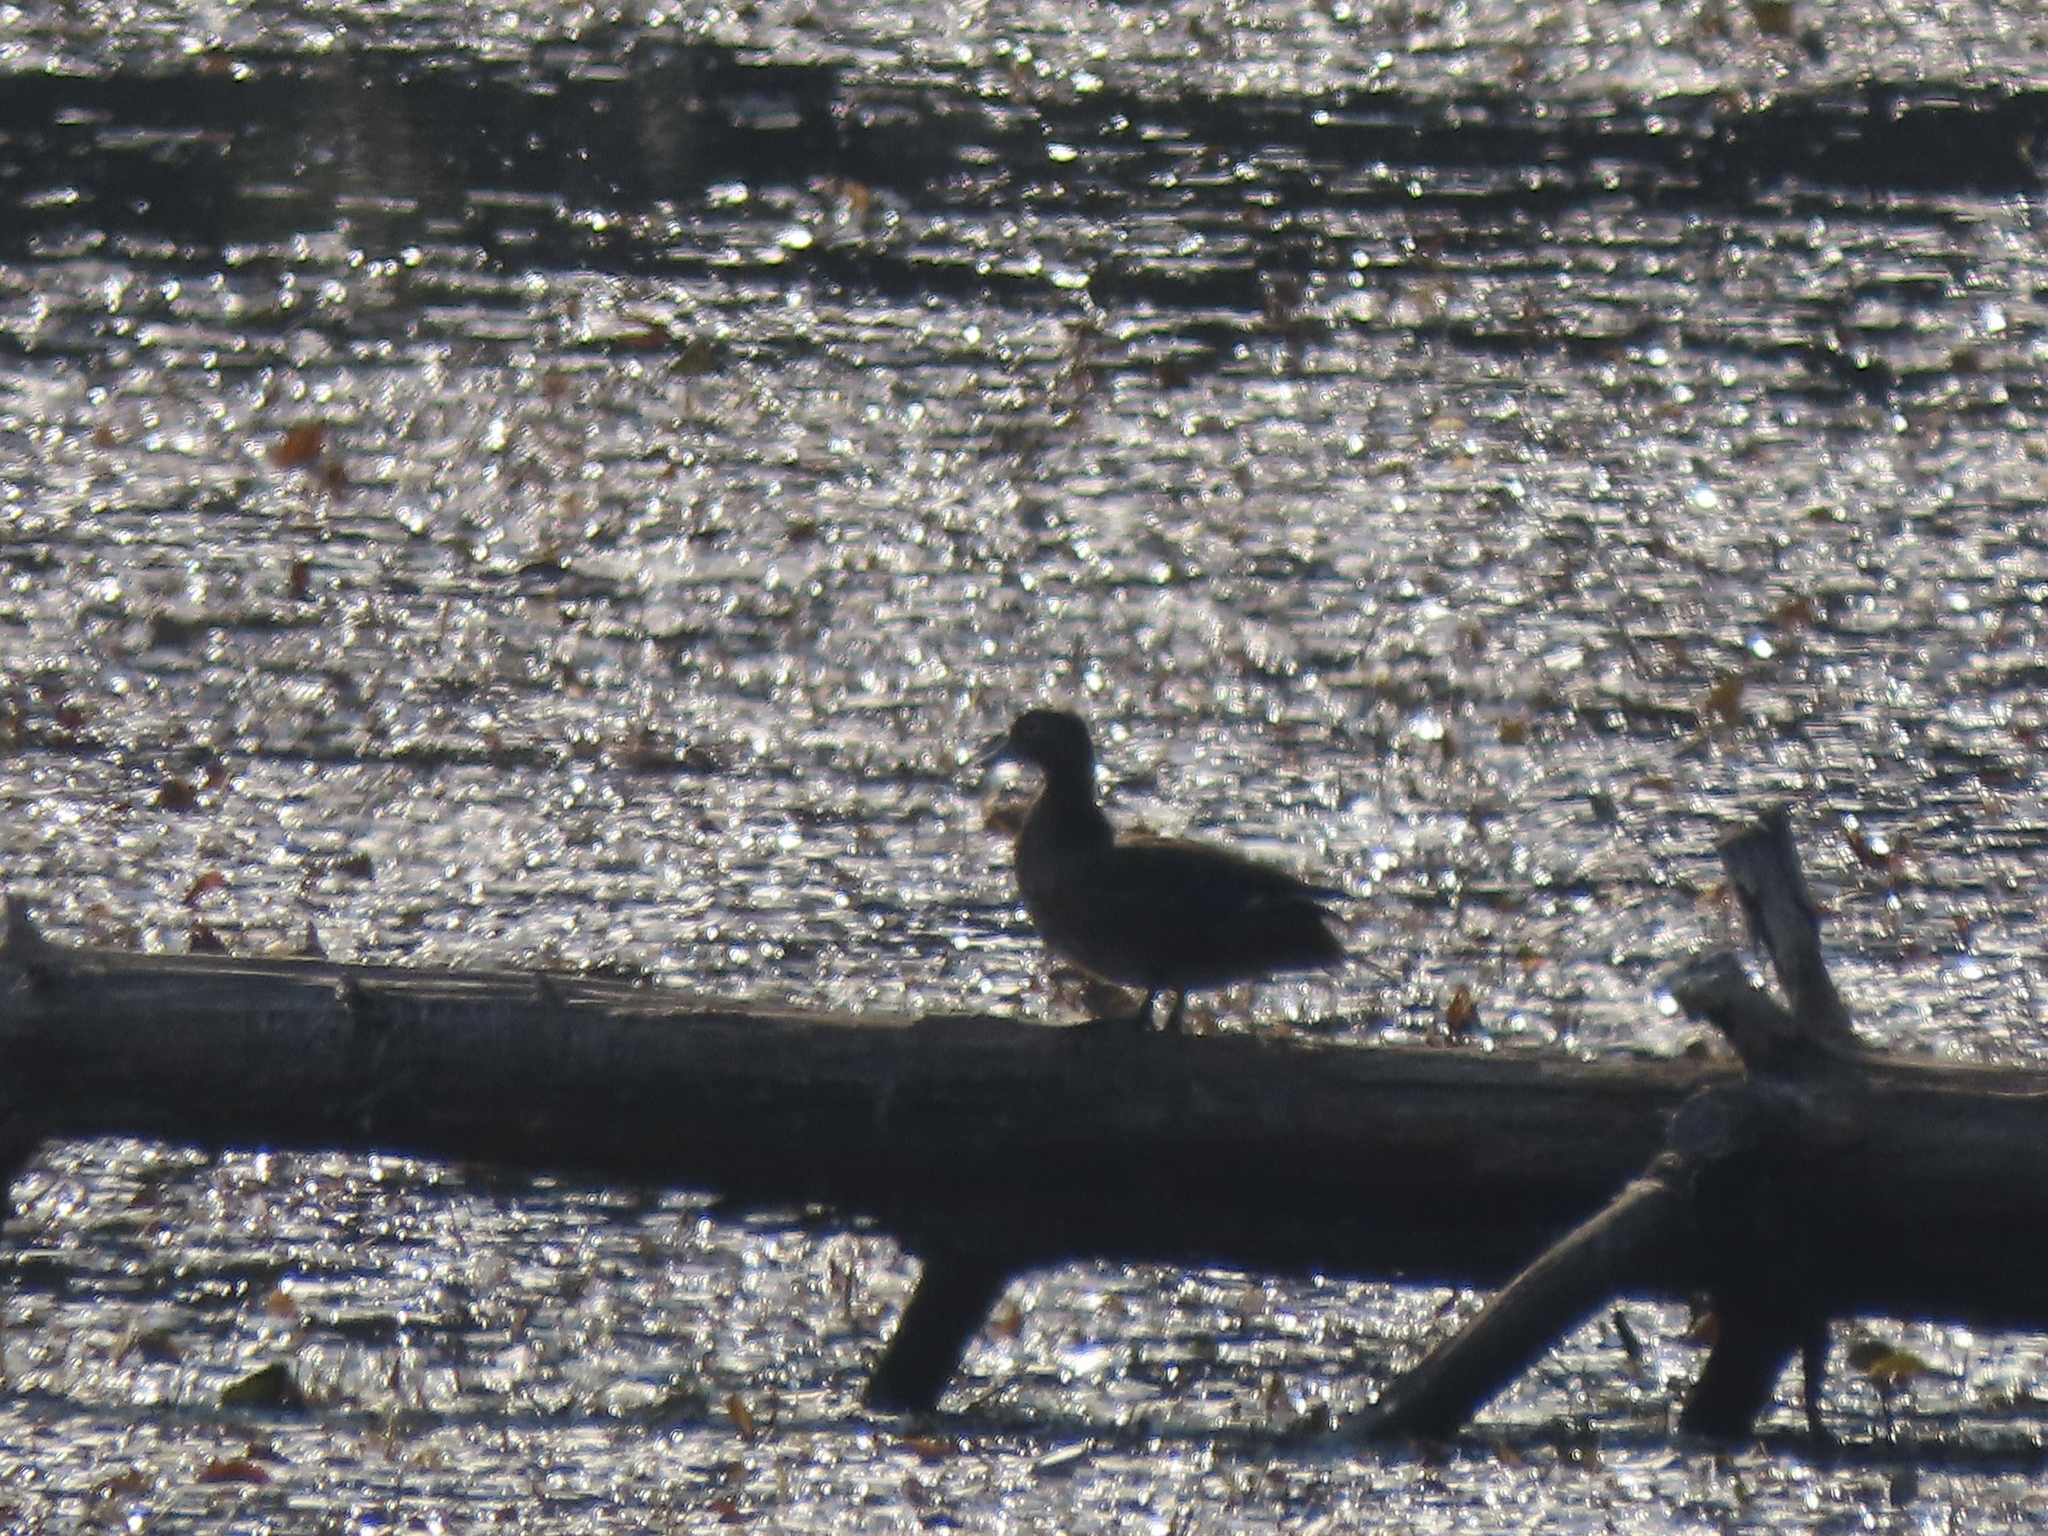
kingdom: Animalia
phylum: Chordata
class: Aves
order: Anseriformes
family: Anatidae
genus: Aix
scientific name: Aix sponsa
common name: Wood duck
